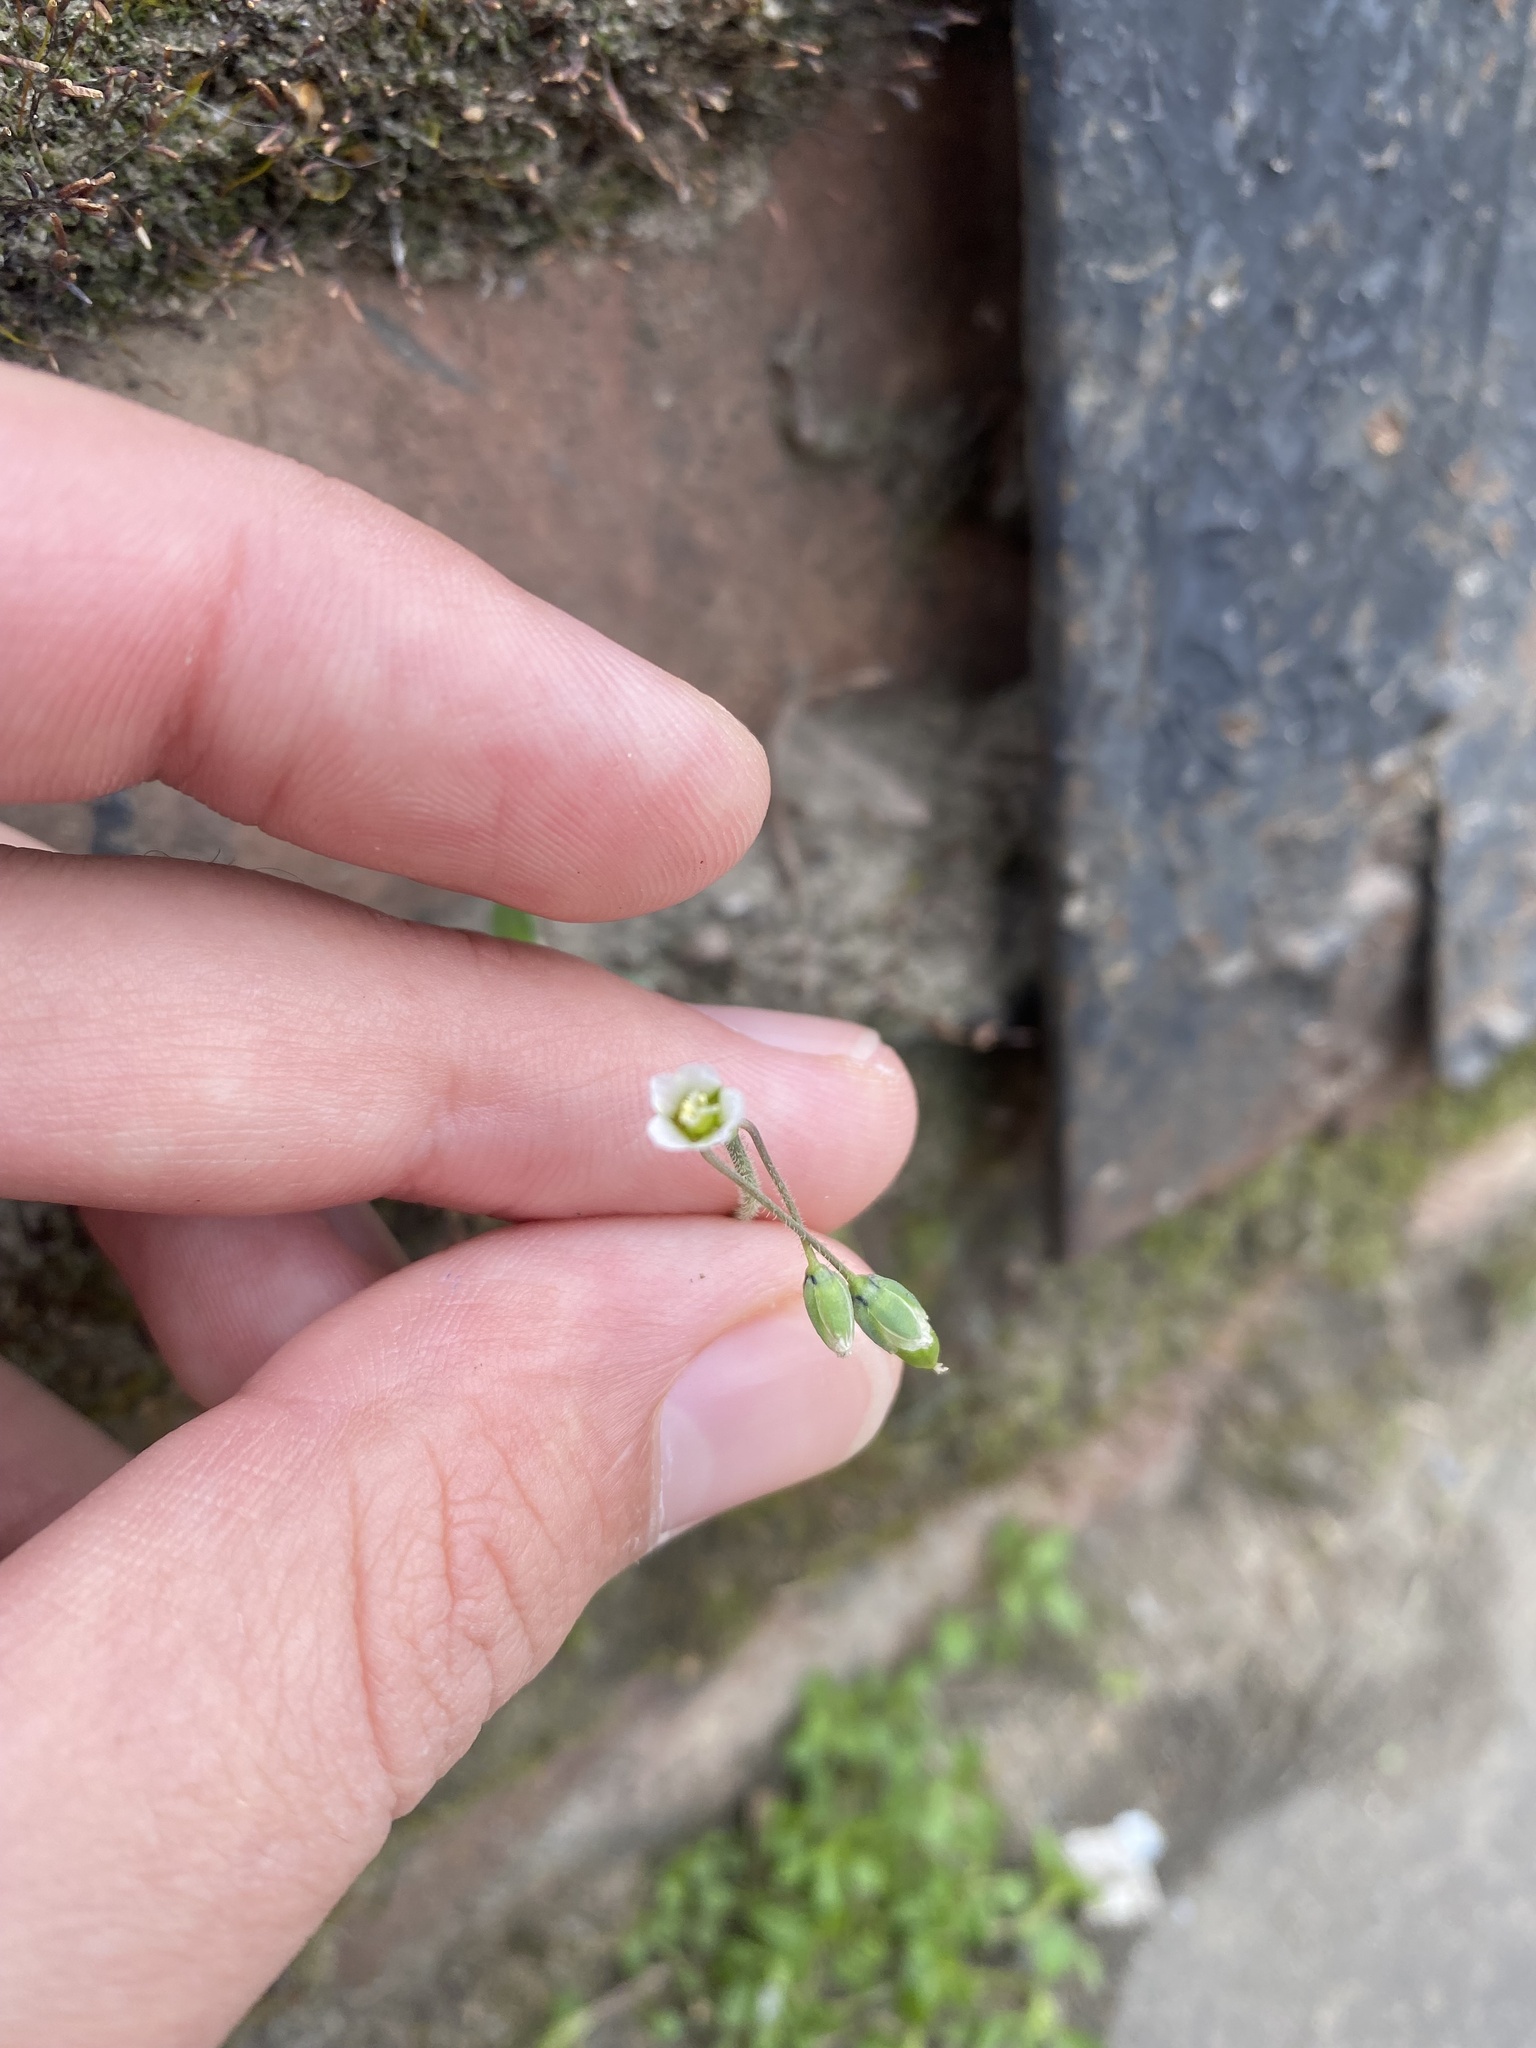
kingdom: Plantae
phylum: Tracheophyta
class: Magnoliopsida
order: Caryophyllales
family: Caryophyllaceae
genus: Holosteum
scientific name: Holosteum umbellatum
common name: Jagged chickweed
